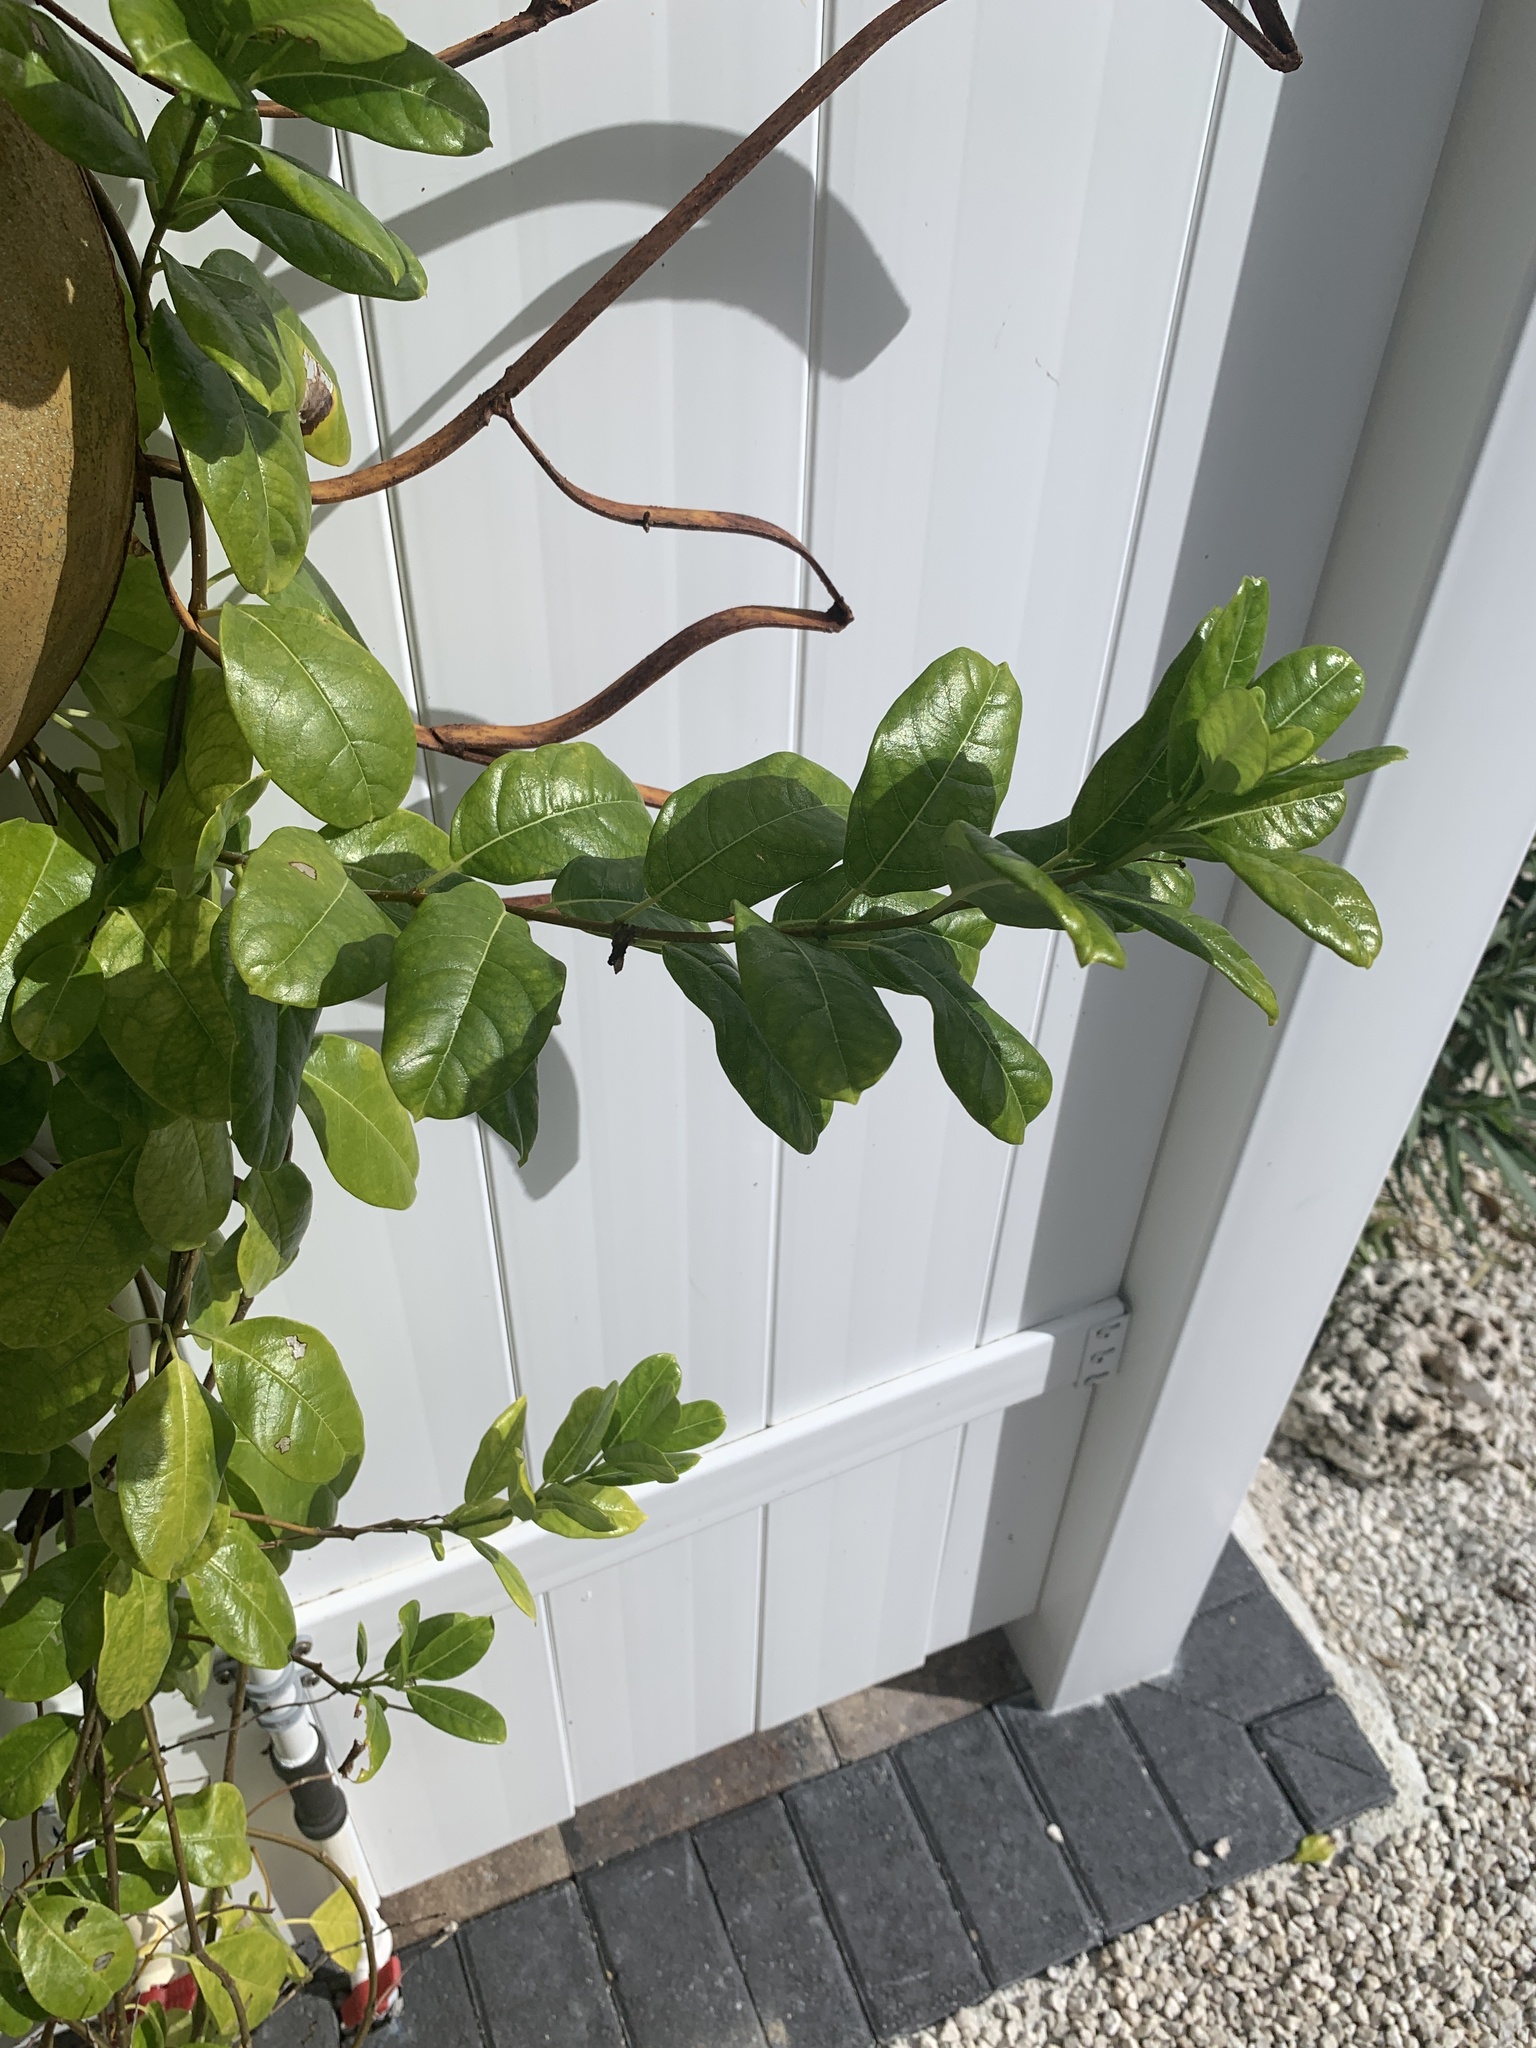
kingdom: Animalia
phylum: Arthropoda
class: Insecta
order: Lepidoptera
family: Erebidae
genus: Empyreuma
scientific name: Empyreuma pugione
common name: Spotted oleander caterpillar moth
